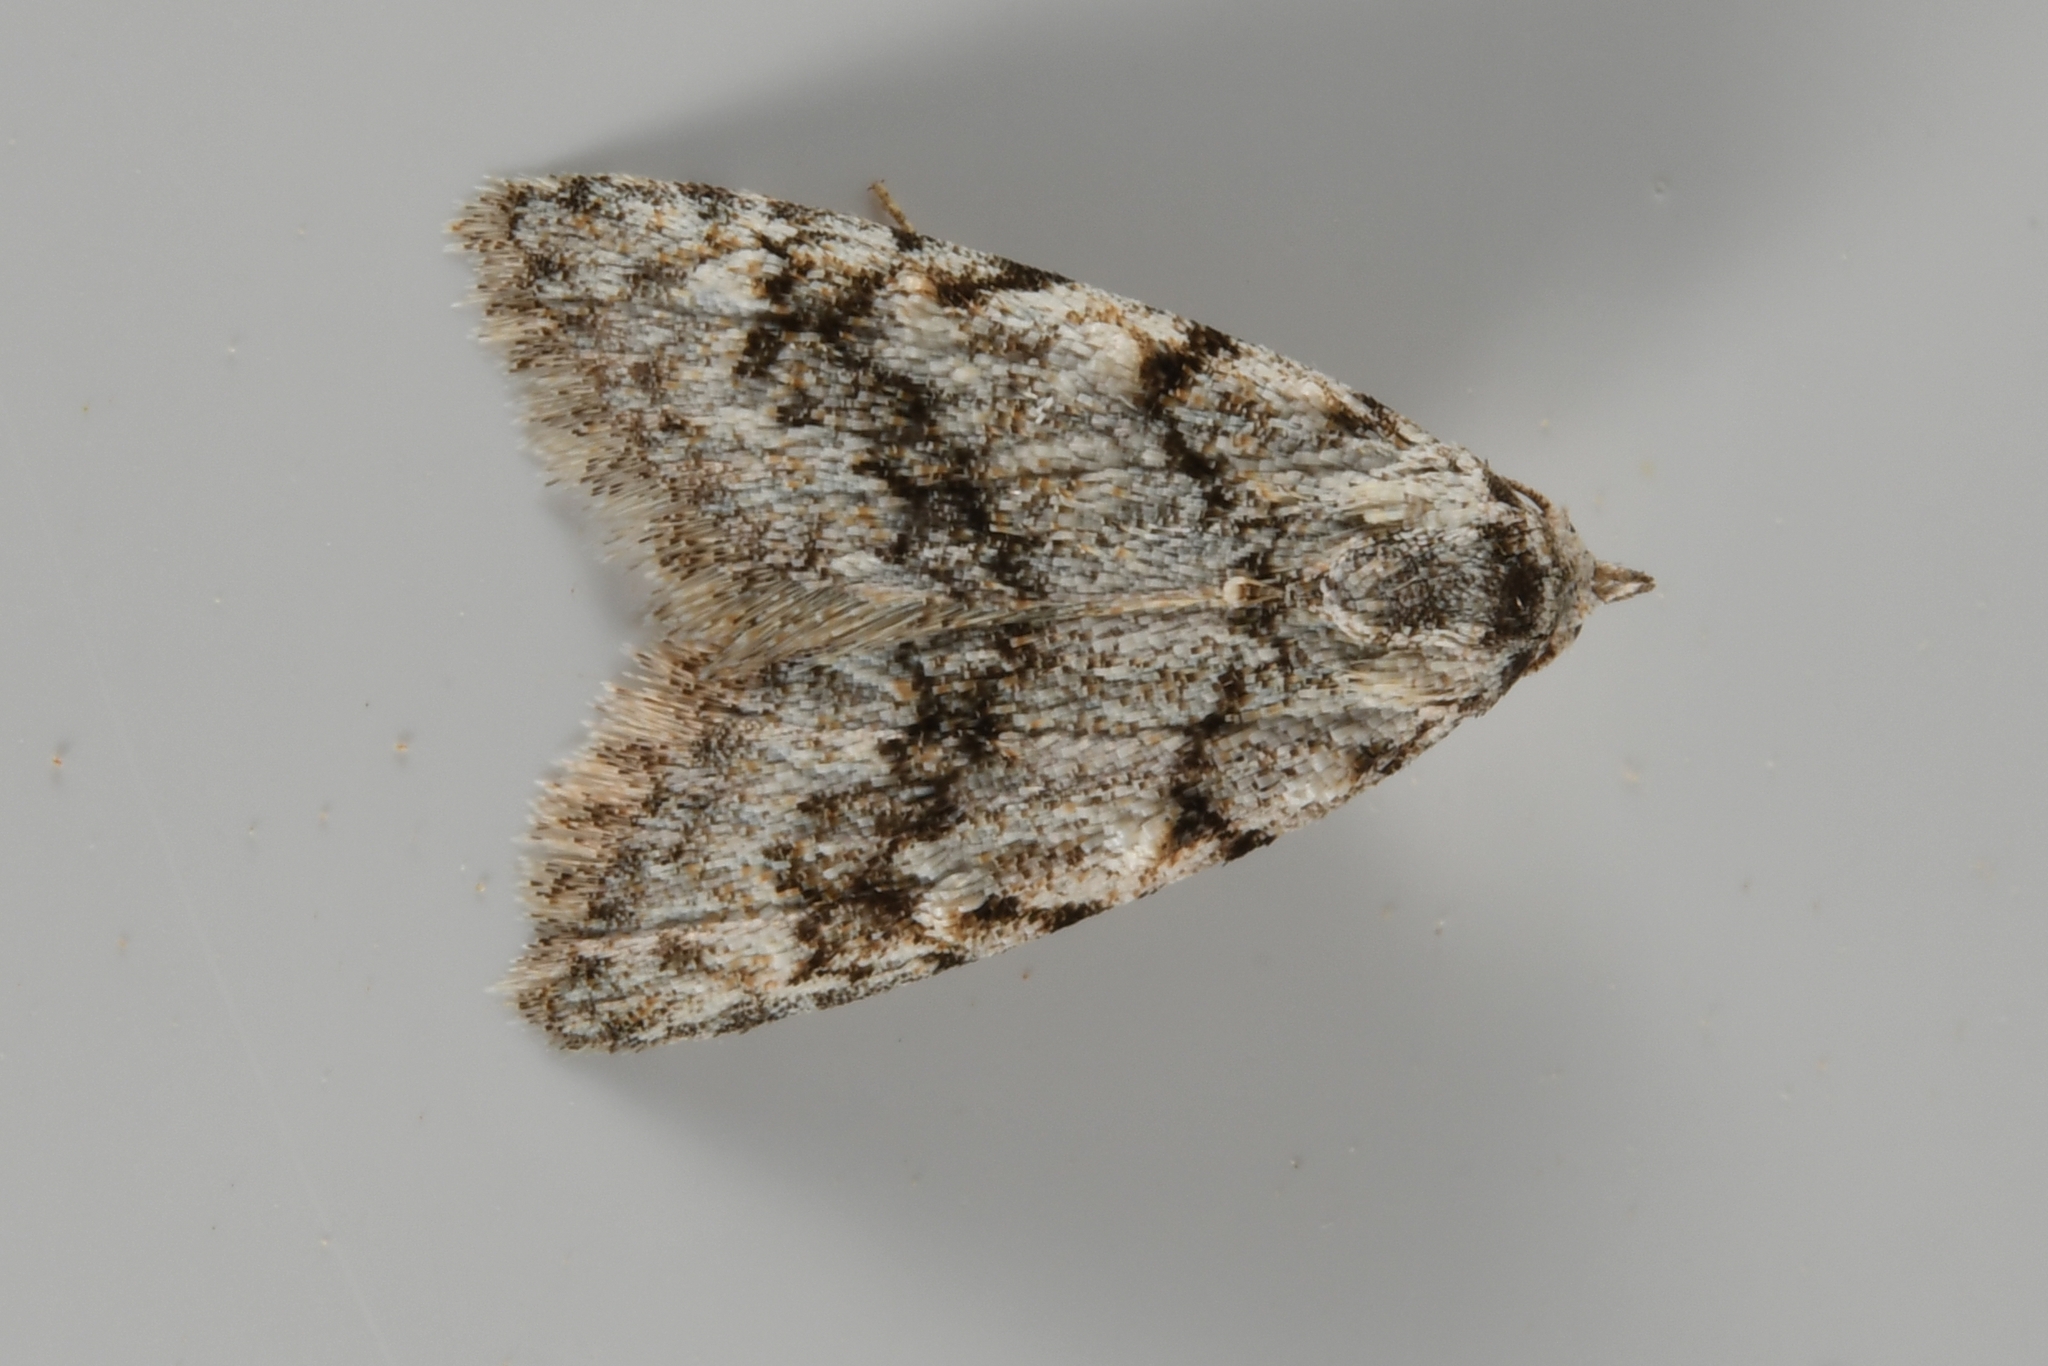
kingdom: Animalia
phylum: Arthropoda
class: Insecta
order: Lepidoptera
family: Nolidae
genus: Nola
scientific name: Nola cicatricalis
